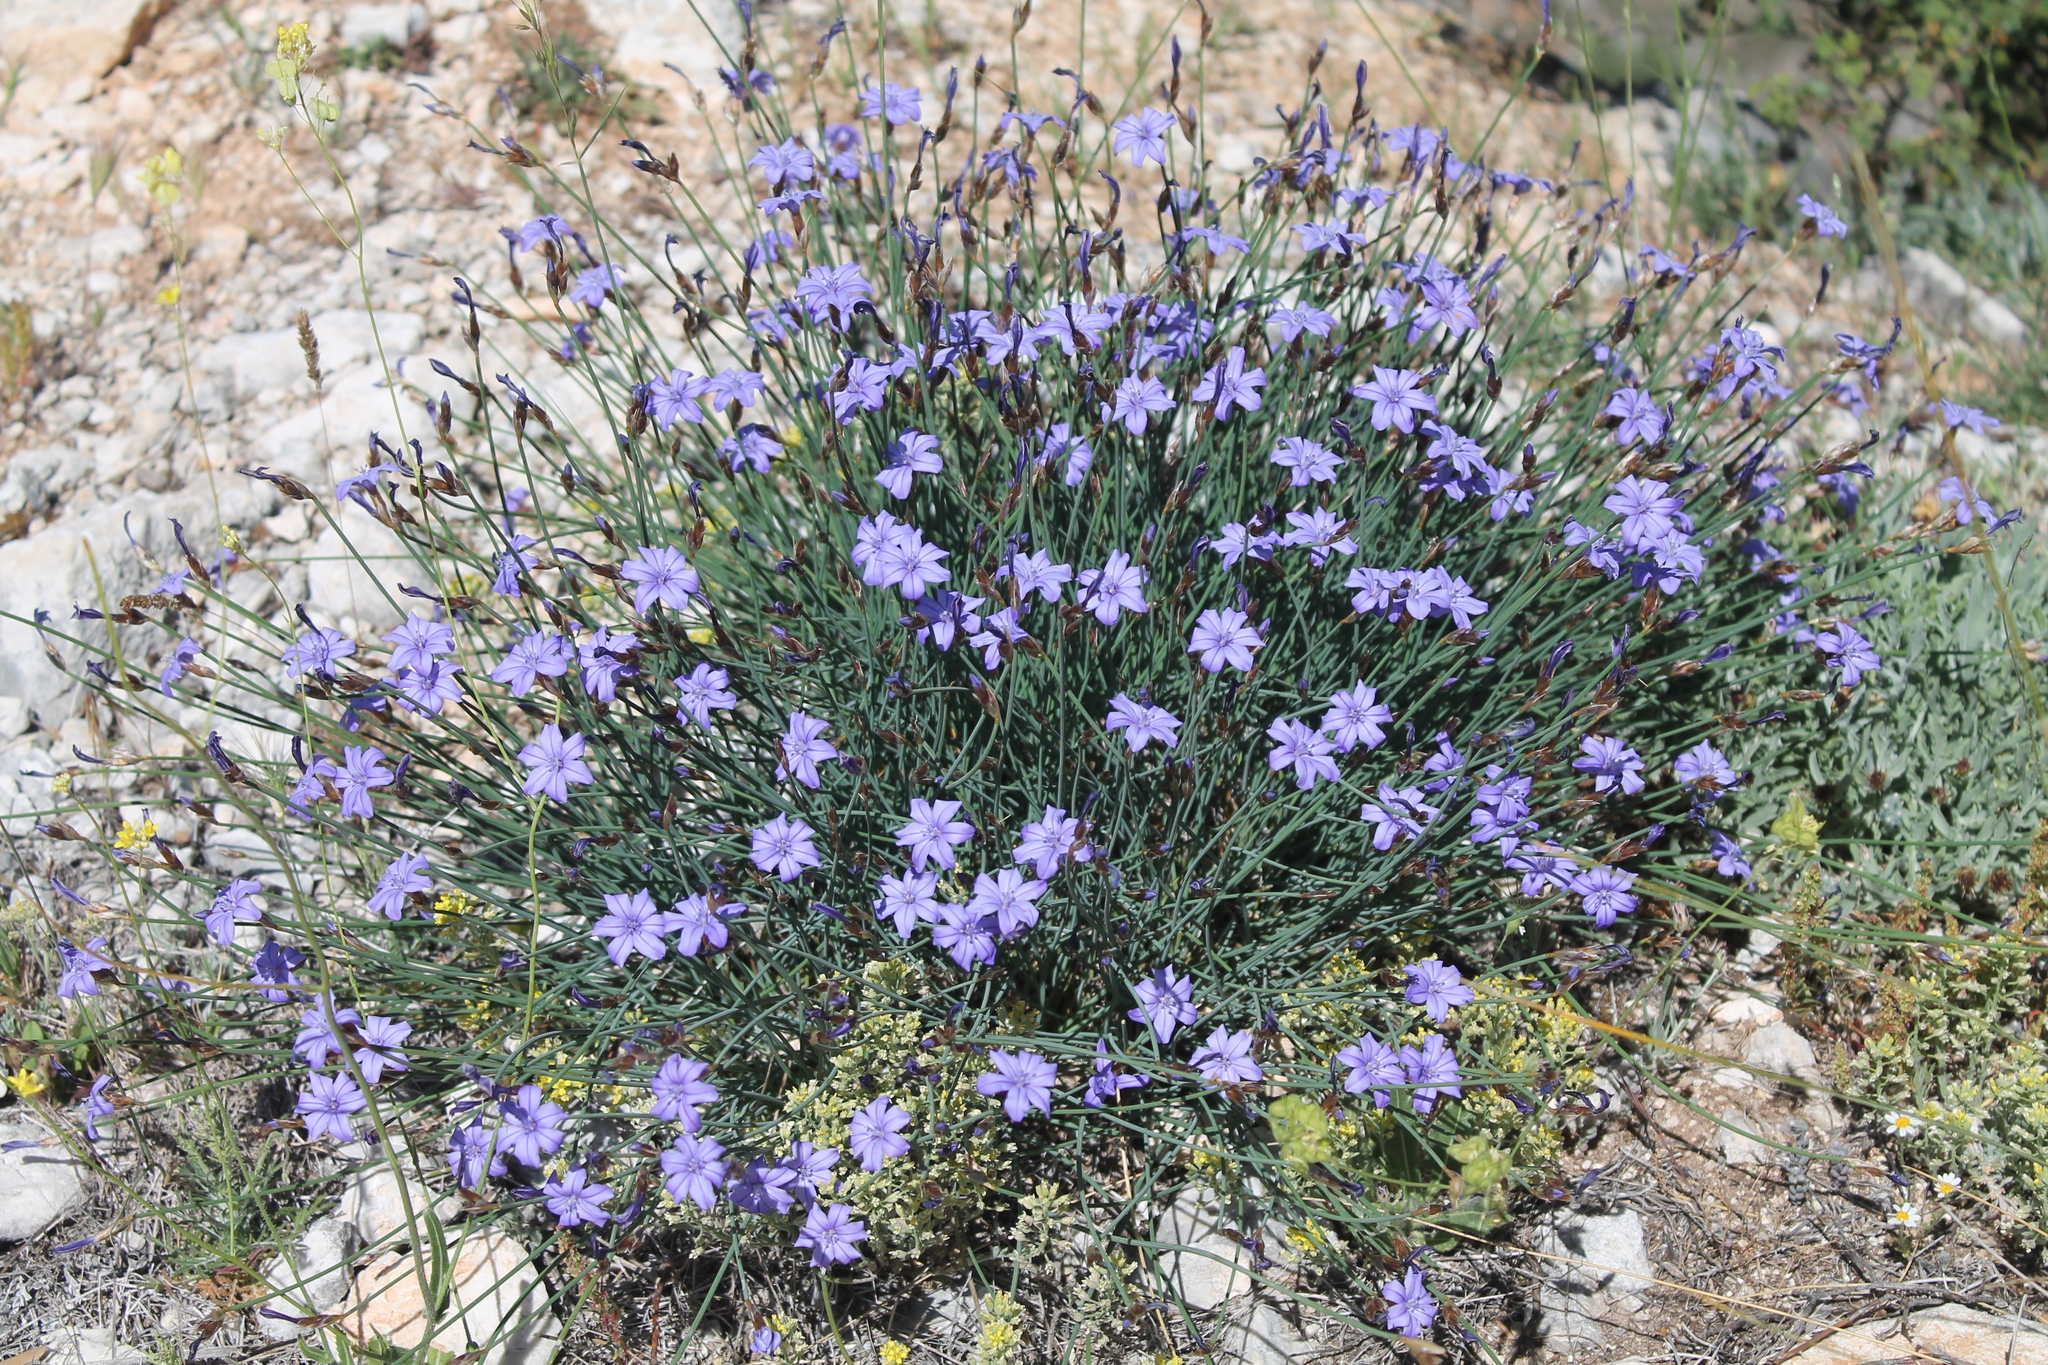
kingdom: Plantae
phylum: Tracheophyta
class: Liliopsida
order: Asparagales
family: Asparagaceae
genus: Aphyllanthes
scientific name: Aphyllanthes monspeliensis
